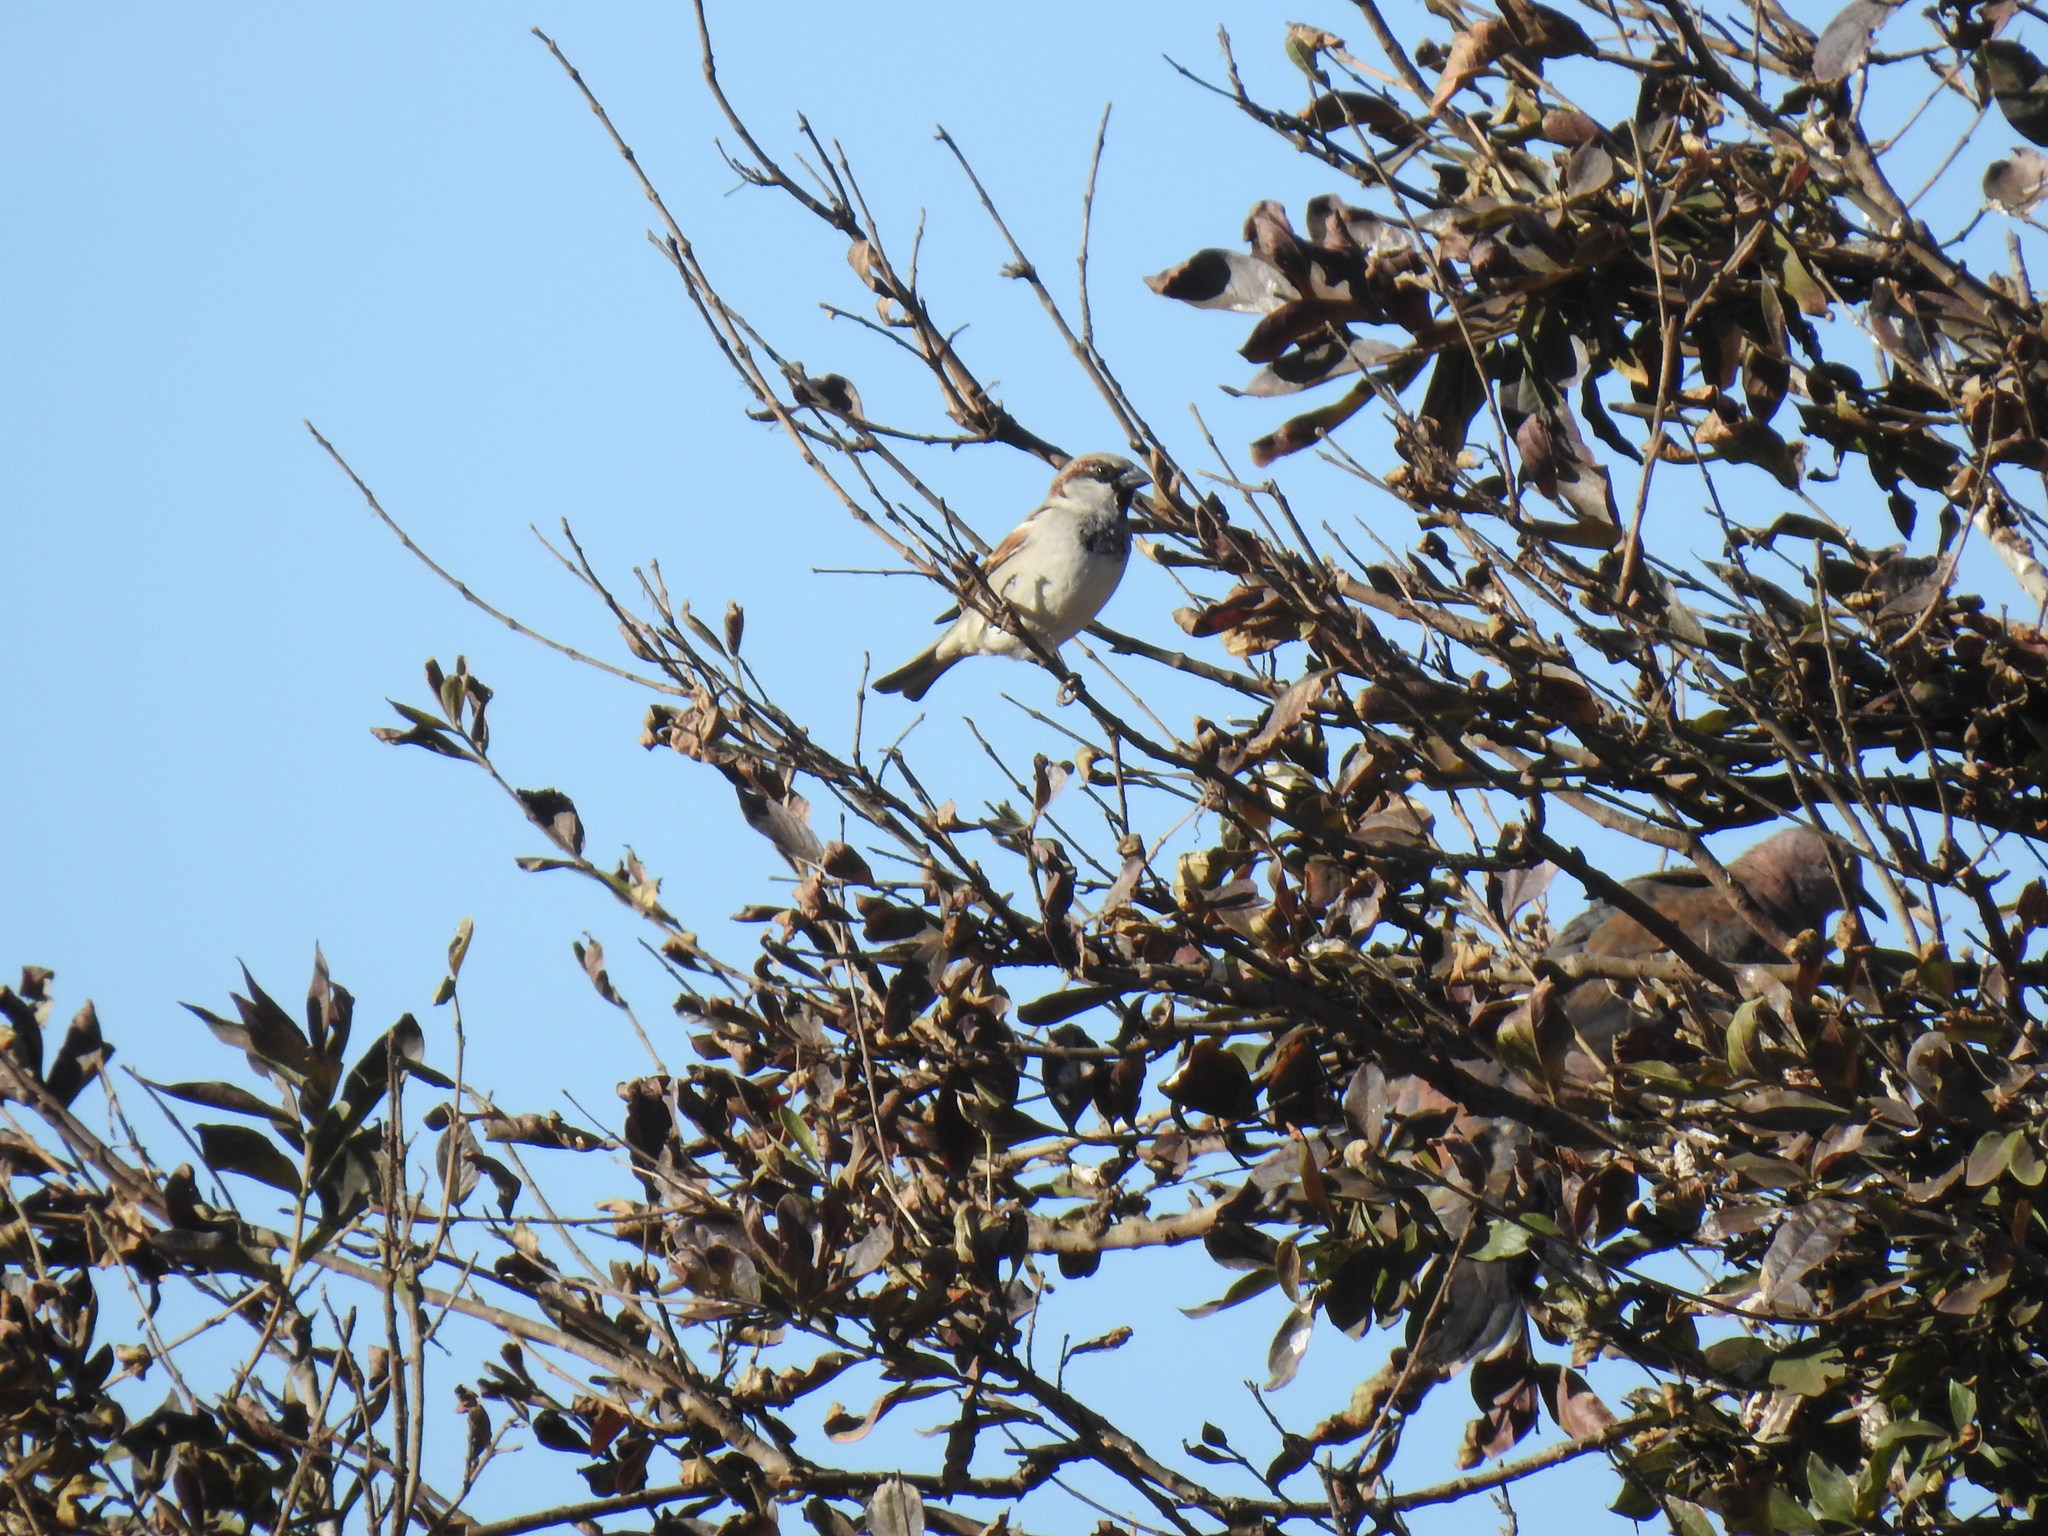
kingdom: Animalia
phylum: Chordata
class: Aves
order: Passeriformes
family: Passeridae
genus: Passer
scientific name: Passer domesticus
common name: House sparrow
